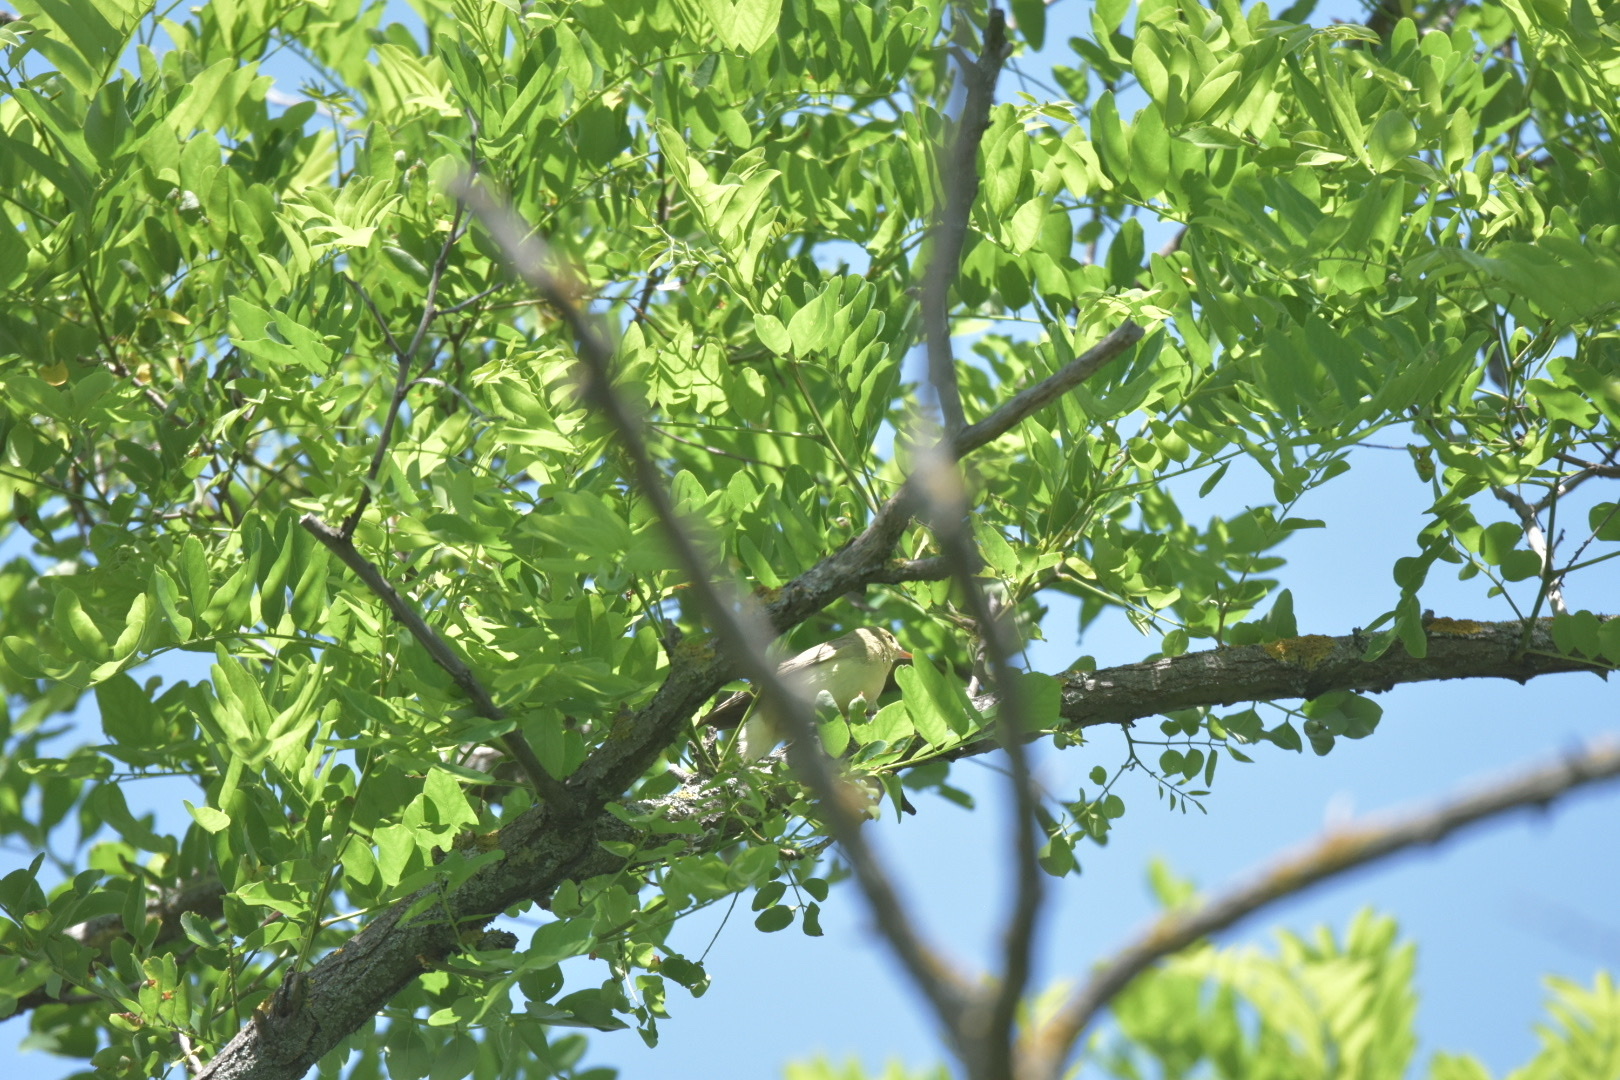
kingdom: Animalia
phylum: Chordata
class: Aves
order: Passeriformes
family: Acrocephalidae
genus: Hippolais
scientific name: Hippolais icterina
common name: Icterine warbler
